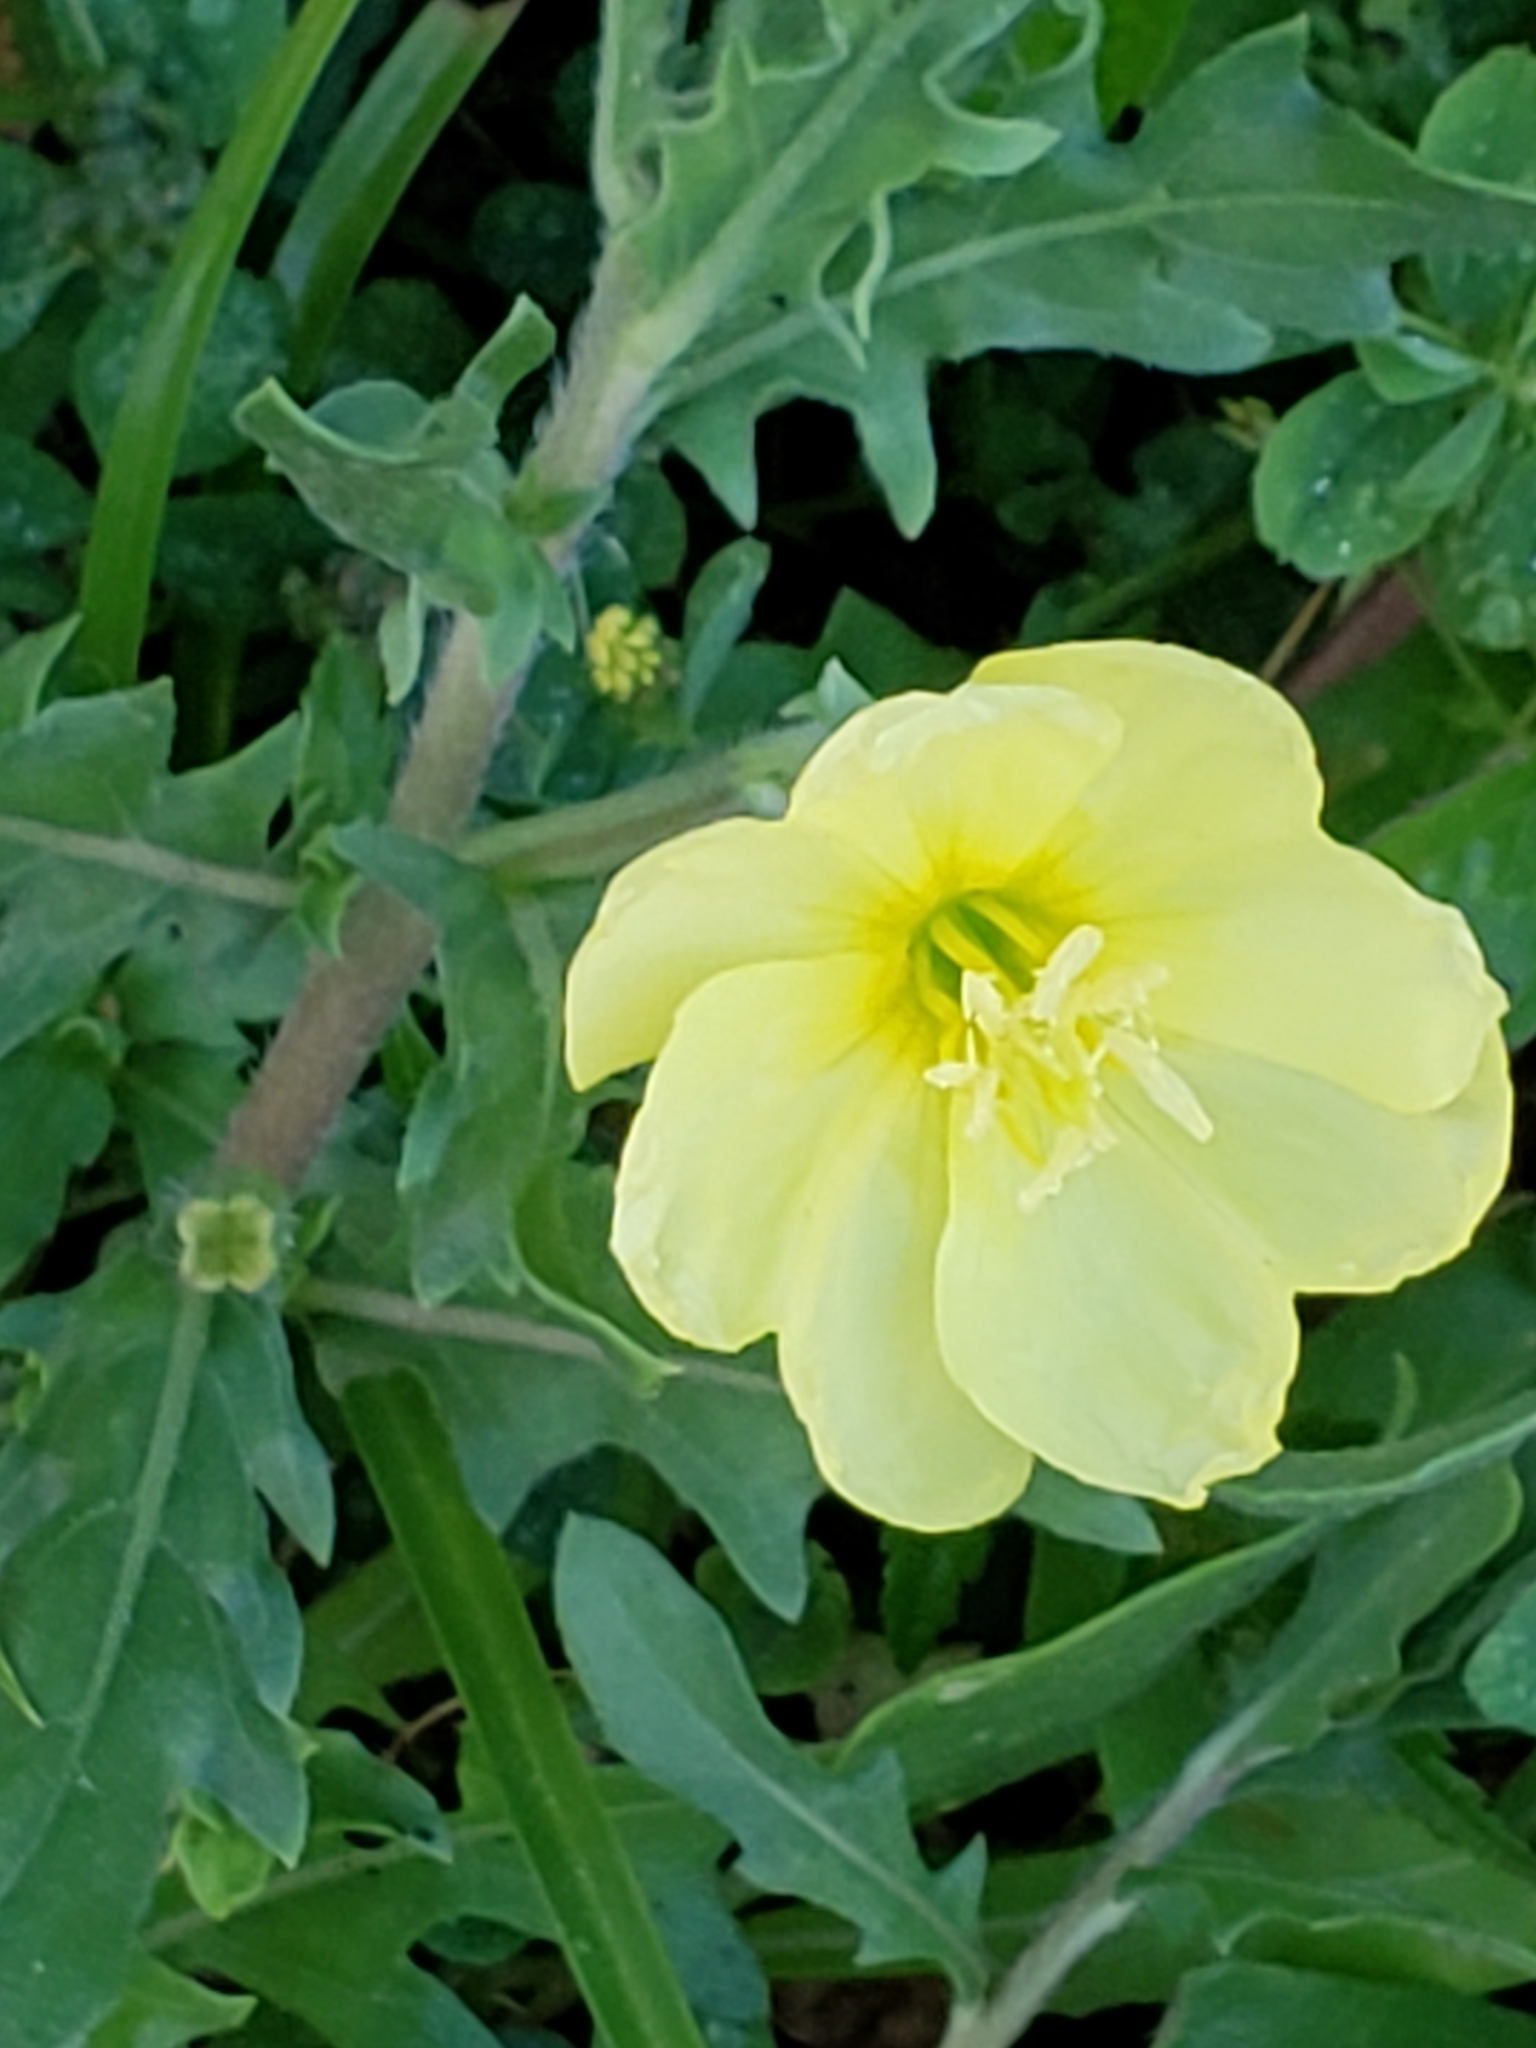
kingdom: Plantae
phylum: Tracheophyta
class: Magnoliopsida
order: Myrtales
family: Onagraceae
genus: Oenothera
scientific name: Oenothera laciniata
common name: Cut-leaved evening-primrose
